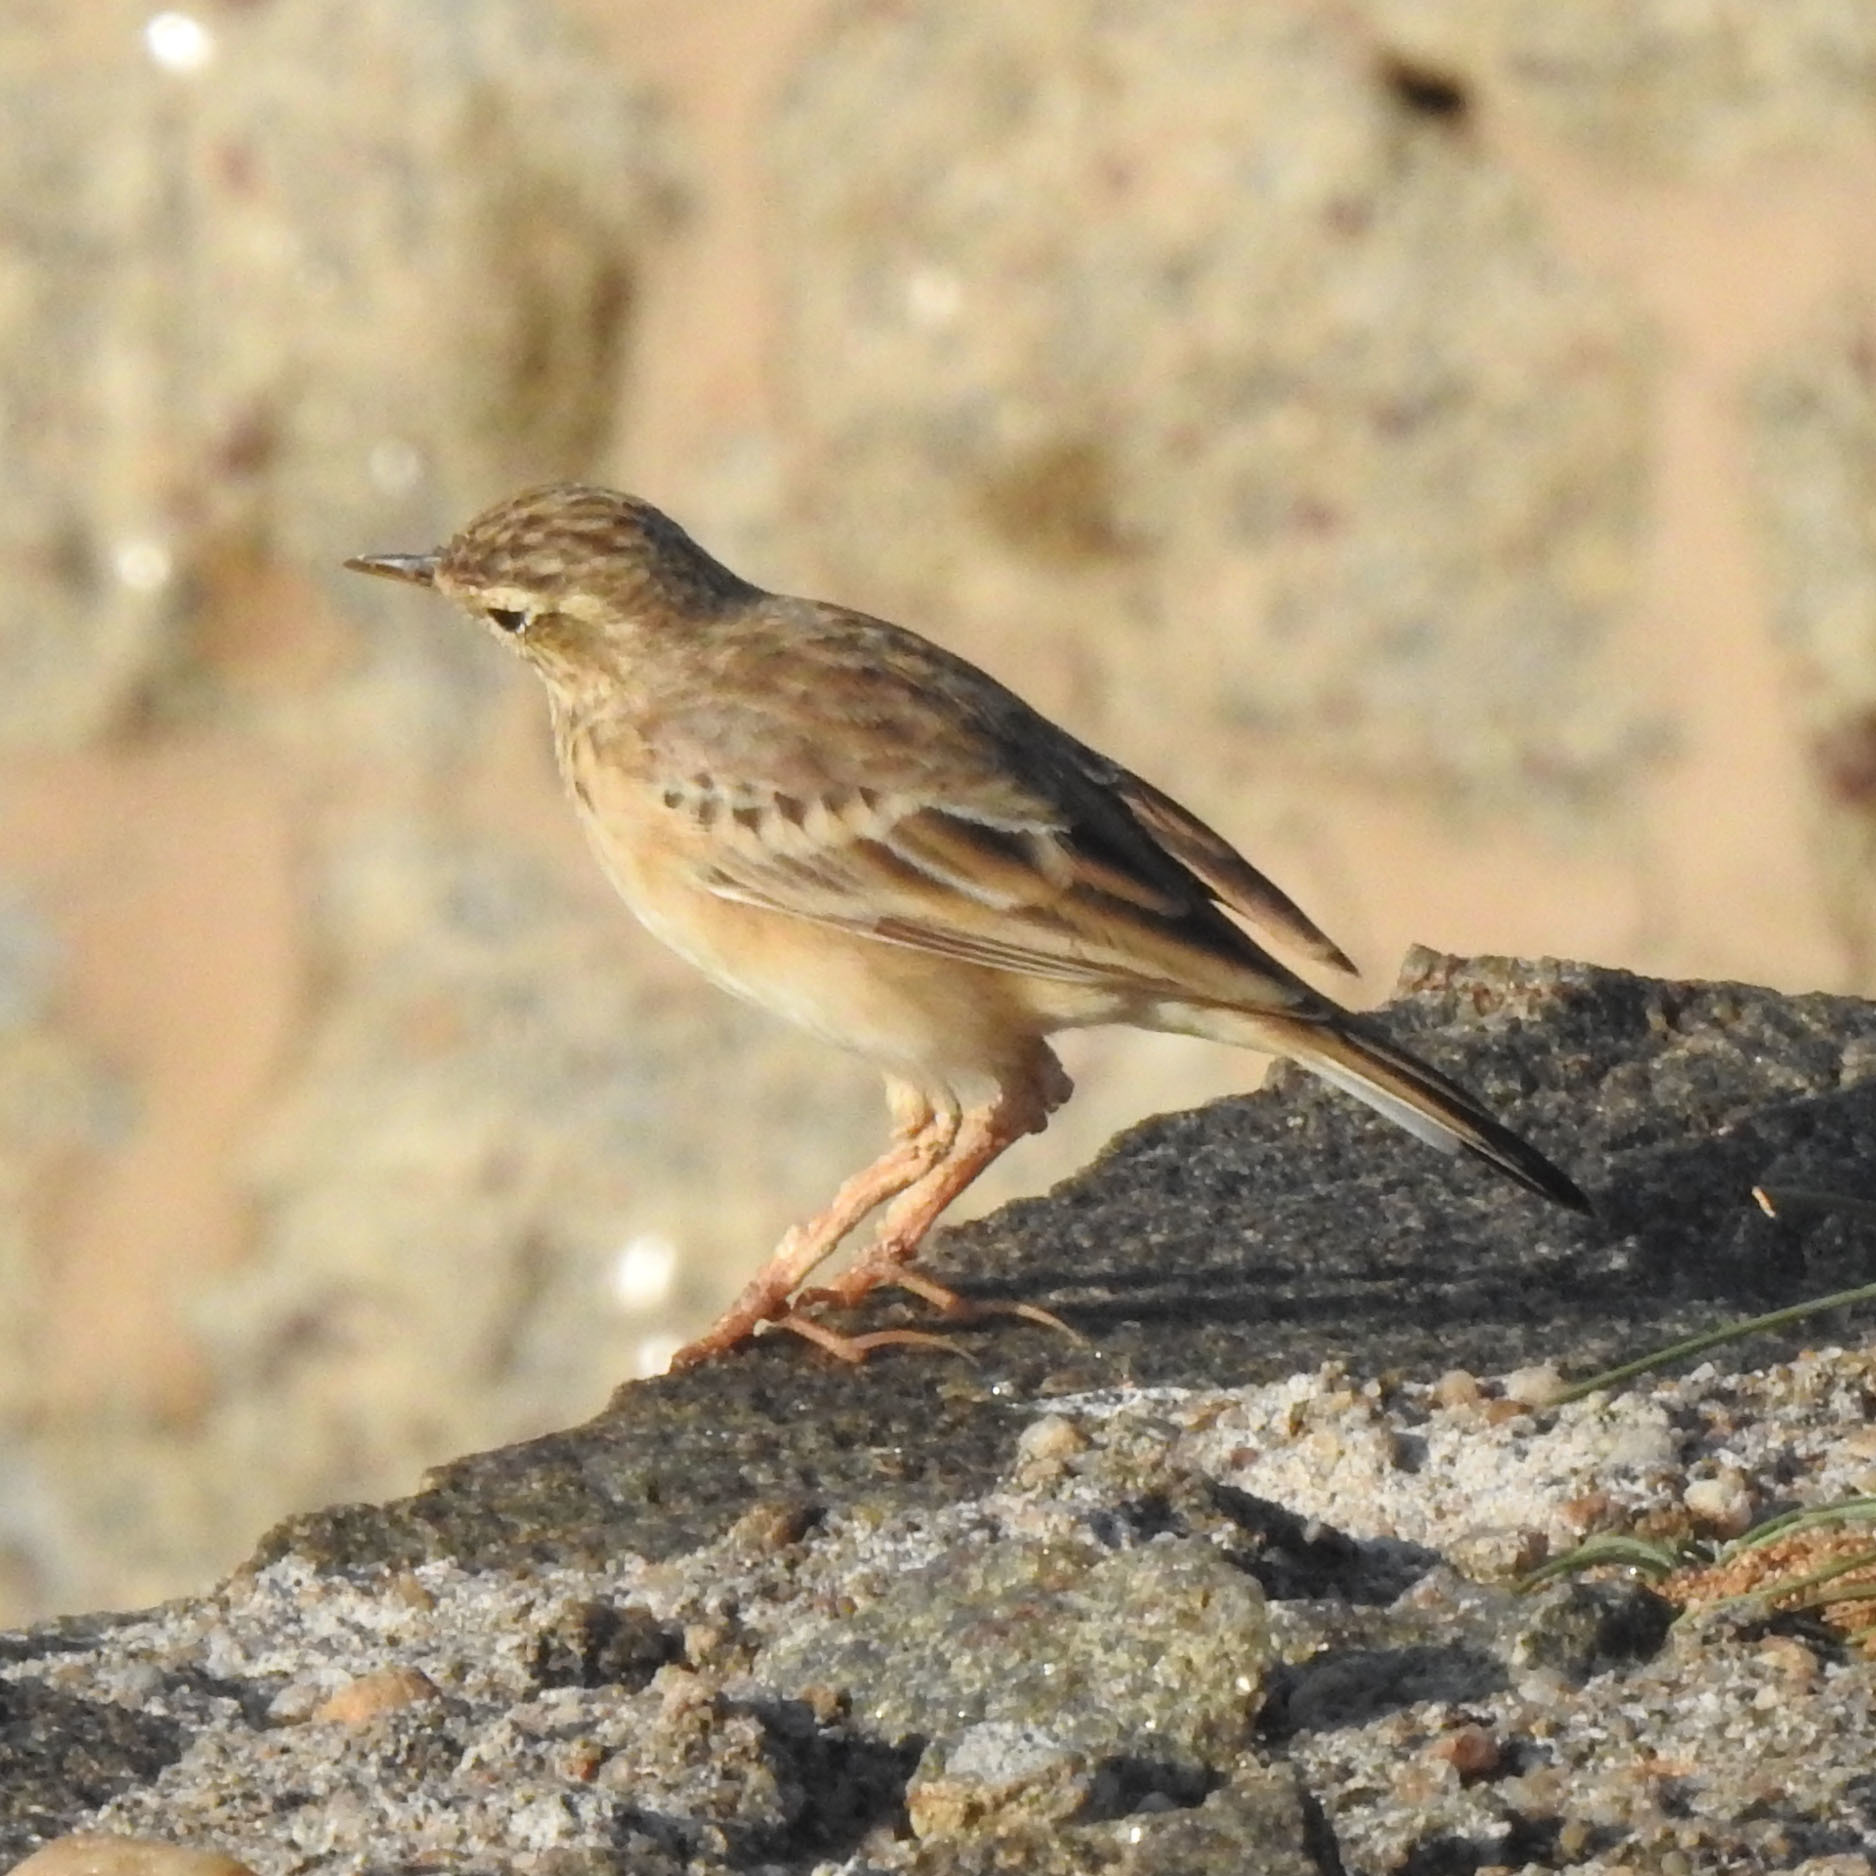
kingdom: Animalia
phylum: Chordata
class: Aves
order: Passeriformes
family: Motacillidae
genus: Anthus
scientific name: Anthus rufulus
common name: Paddyfield pipit
